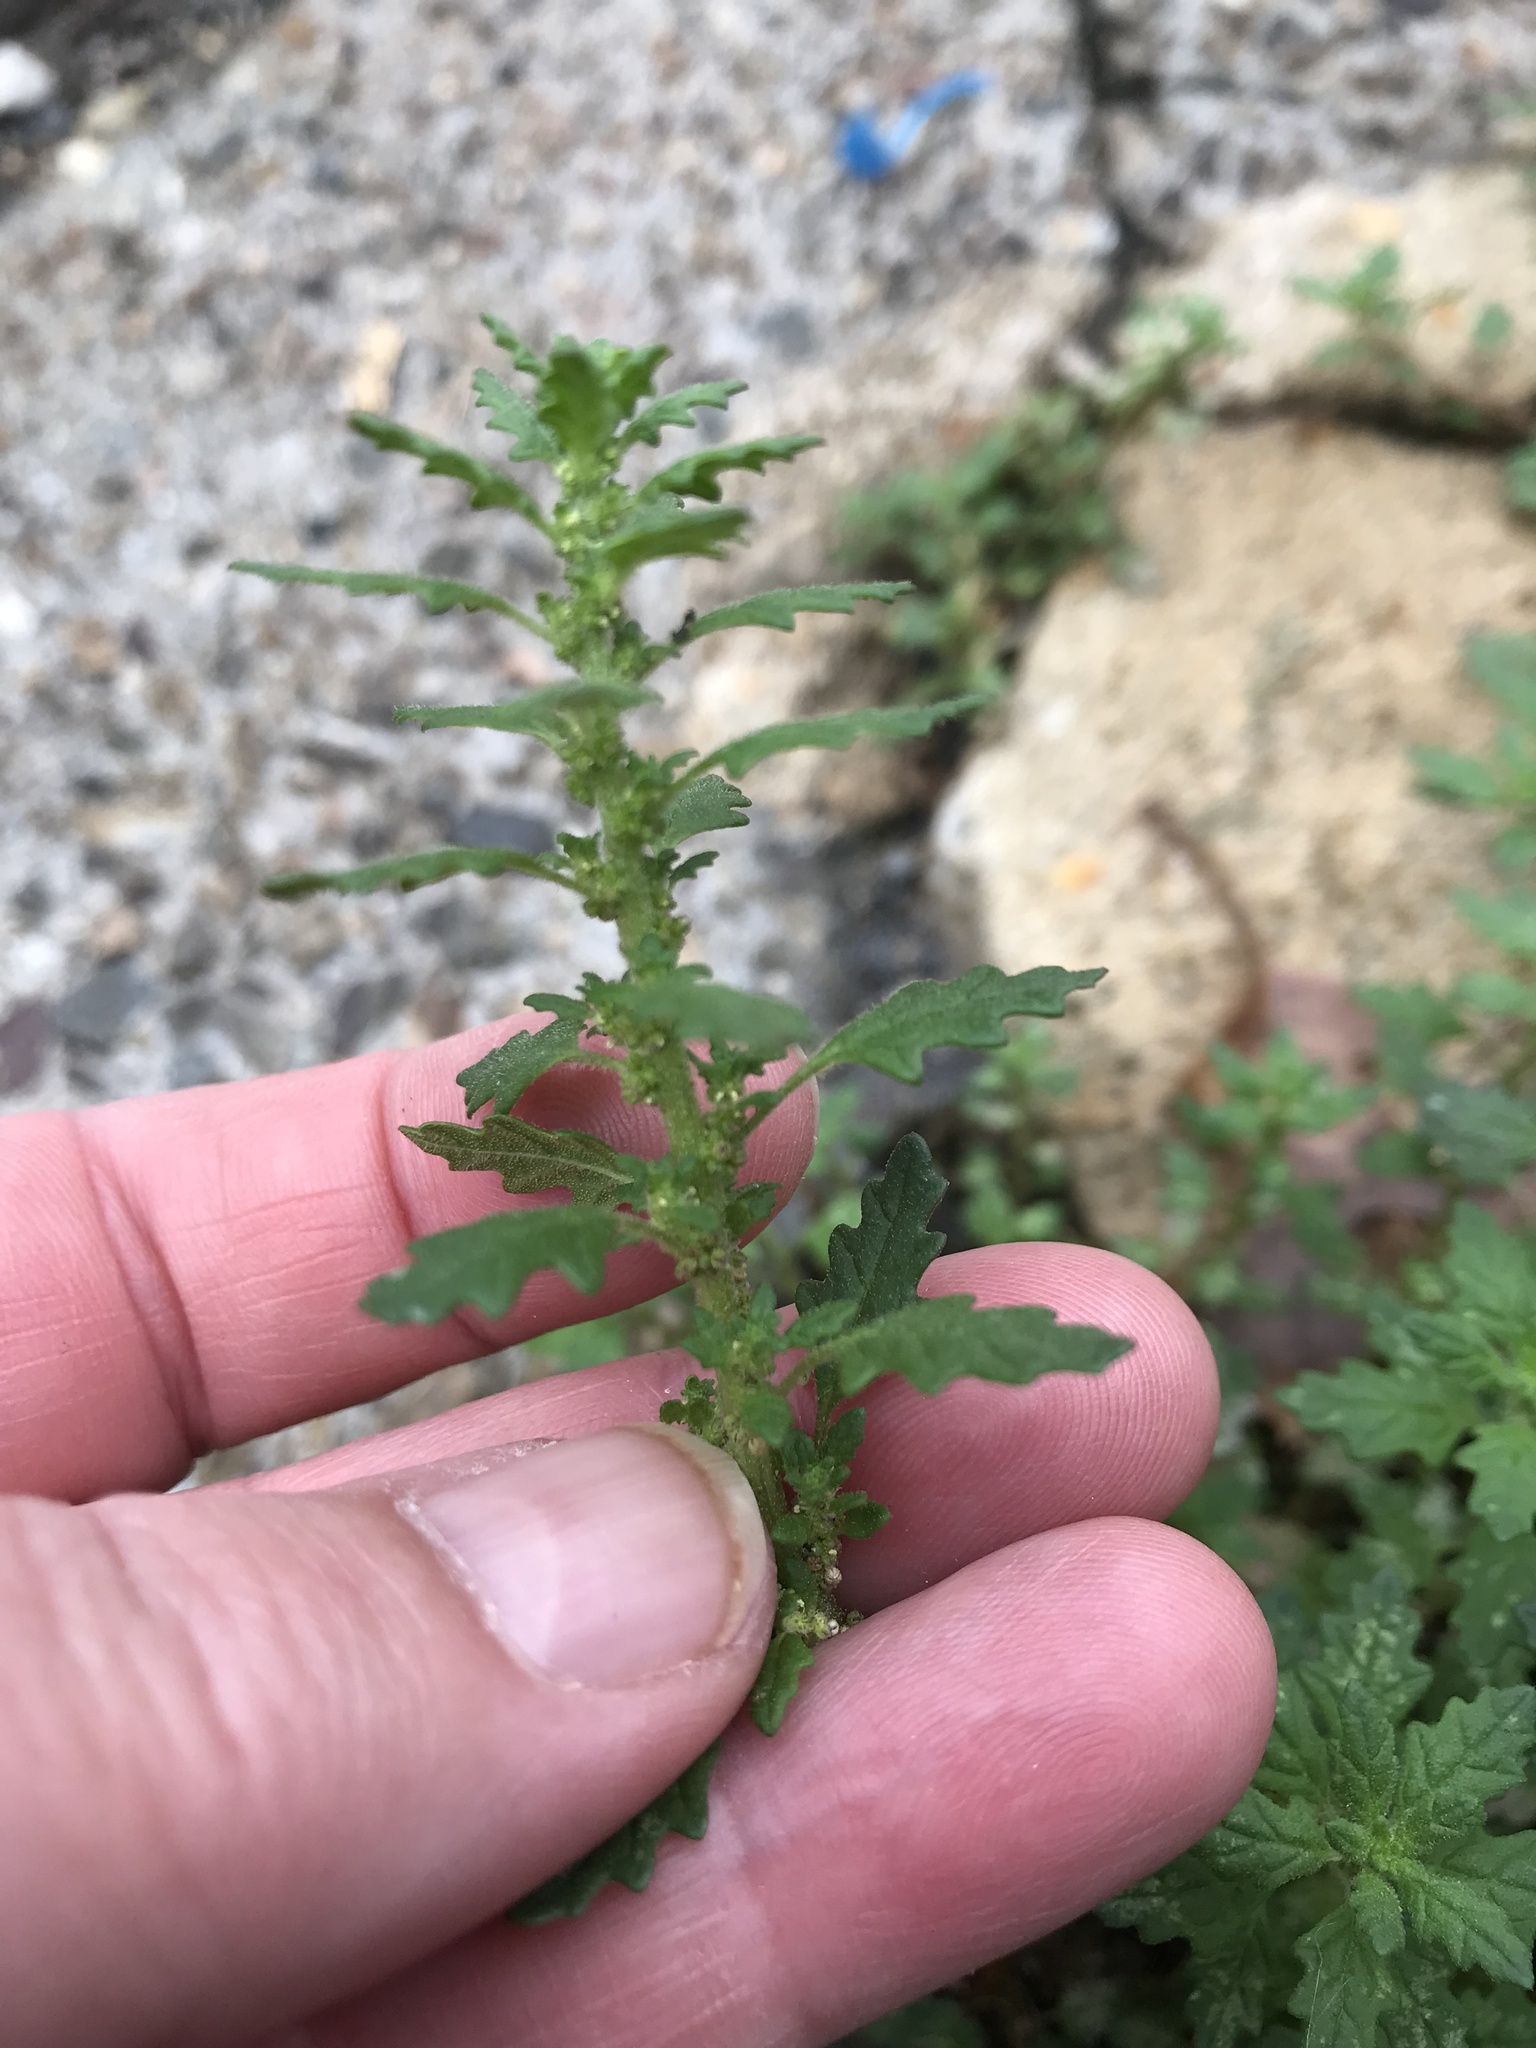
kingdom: Plantae
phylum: Tracheophyta
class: Magnoliopsida
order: Caryophyllales
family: Amaranthaceae
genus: Dysphania
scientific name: Dysphania pumilio
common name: Clammy goosefoot
